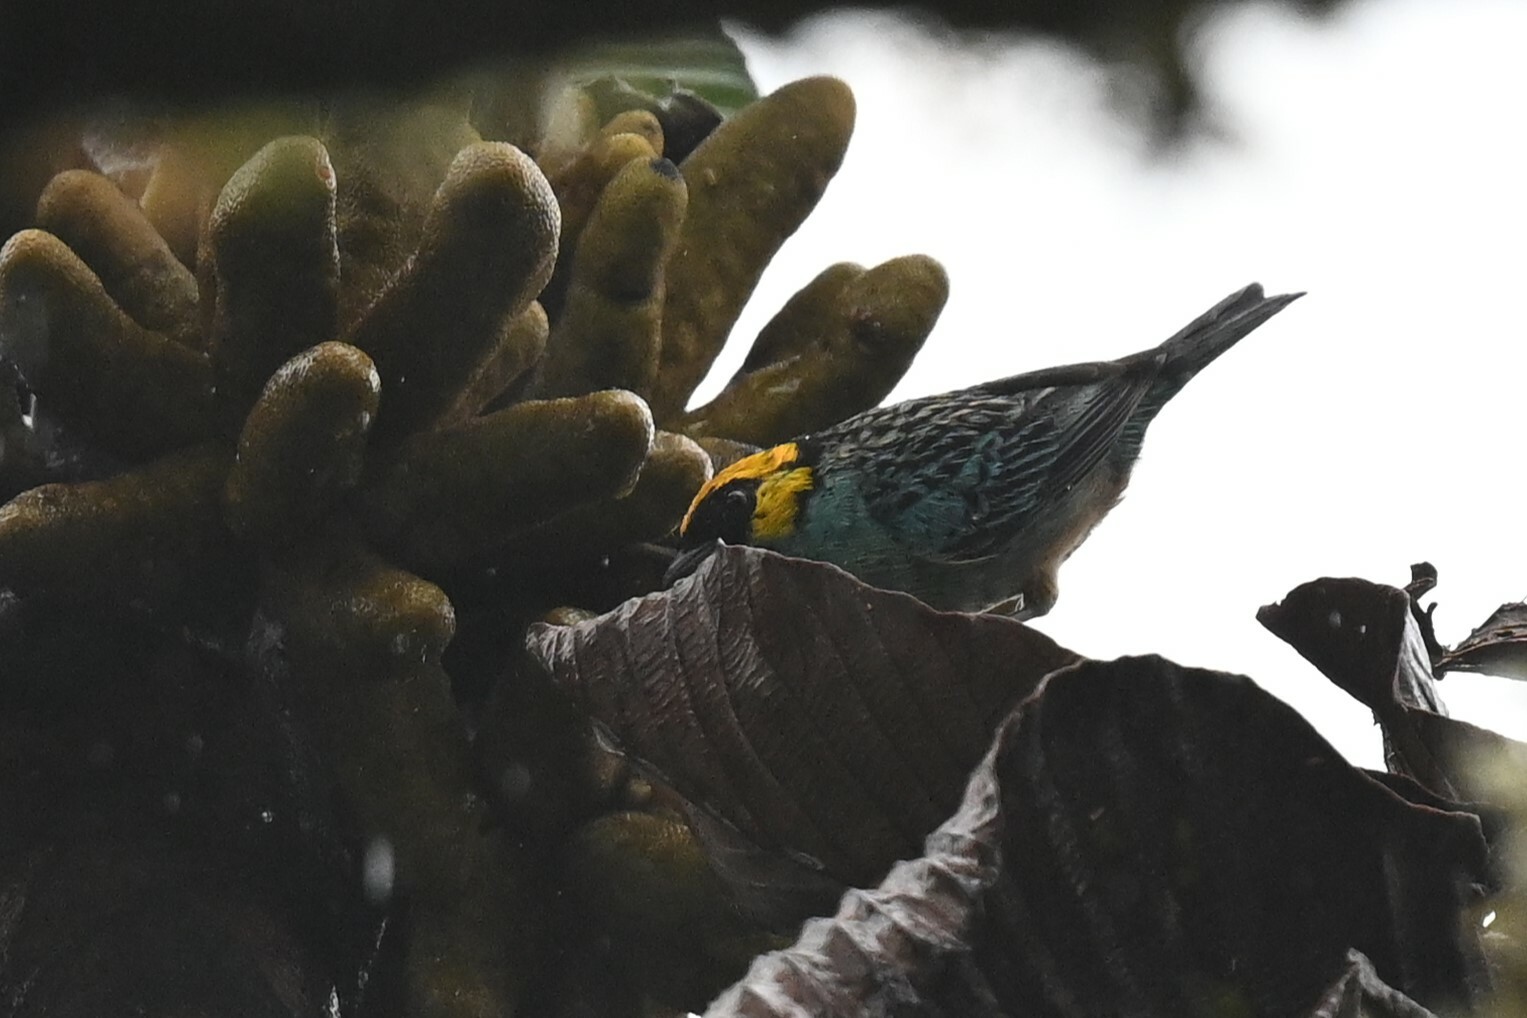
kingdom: Animalia
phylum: Chordata
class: Aves
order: Passeriformes
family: Thraupidae
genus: Tangara
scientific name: Tangara xanthocephala
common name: Saffron-crowned tanager
